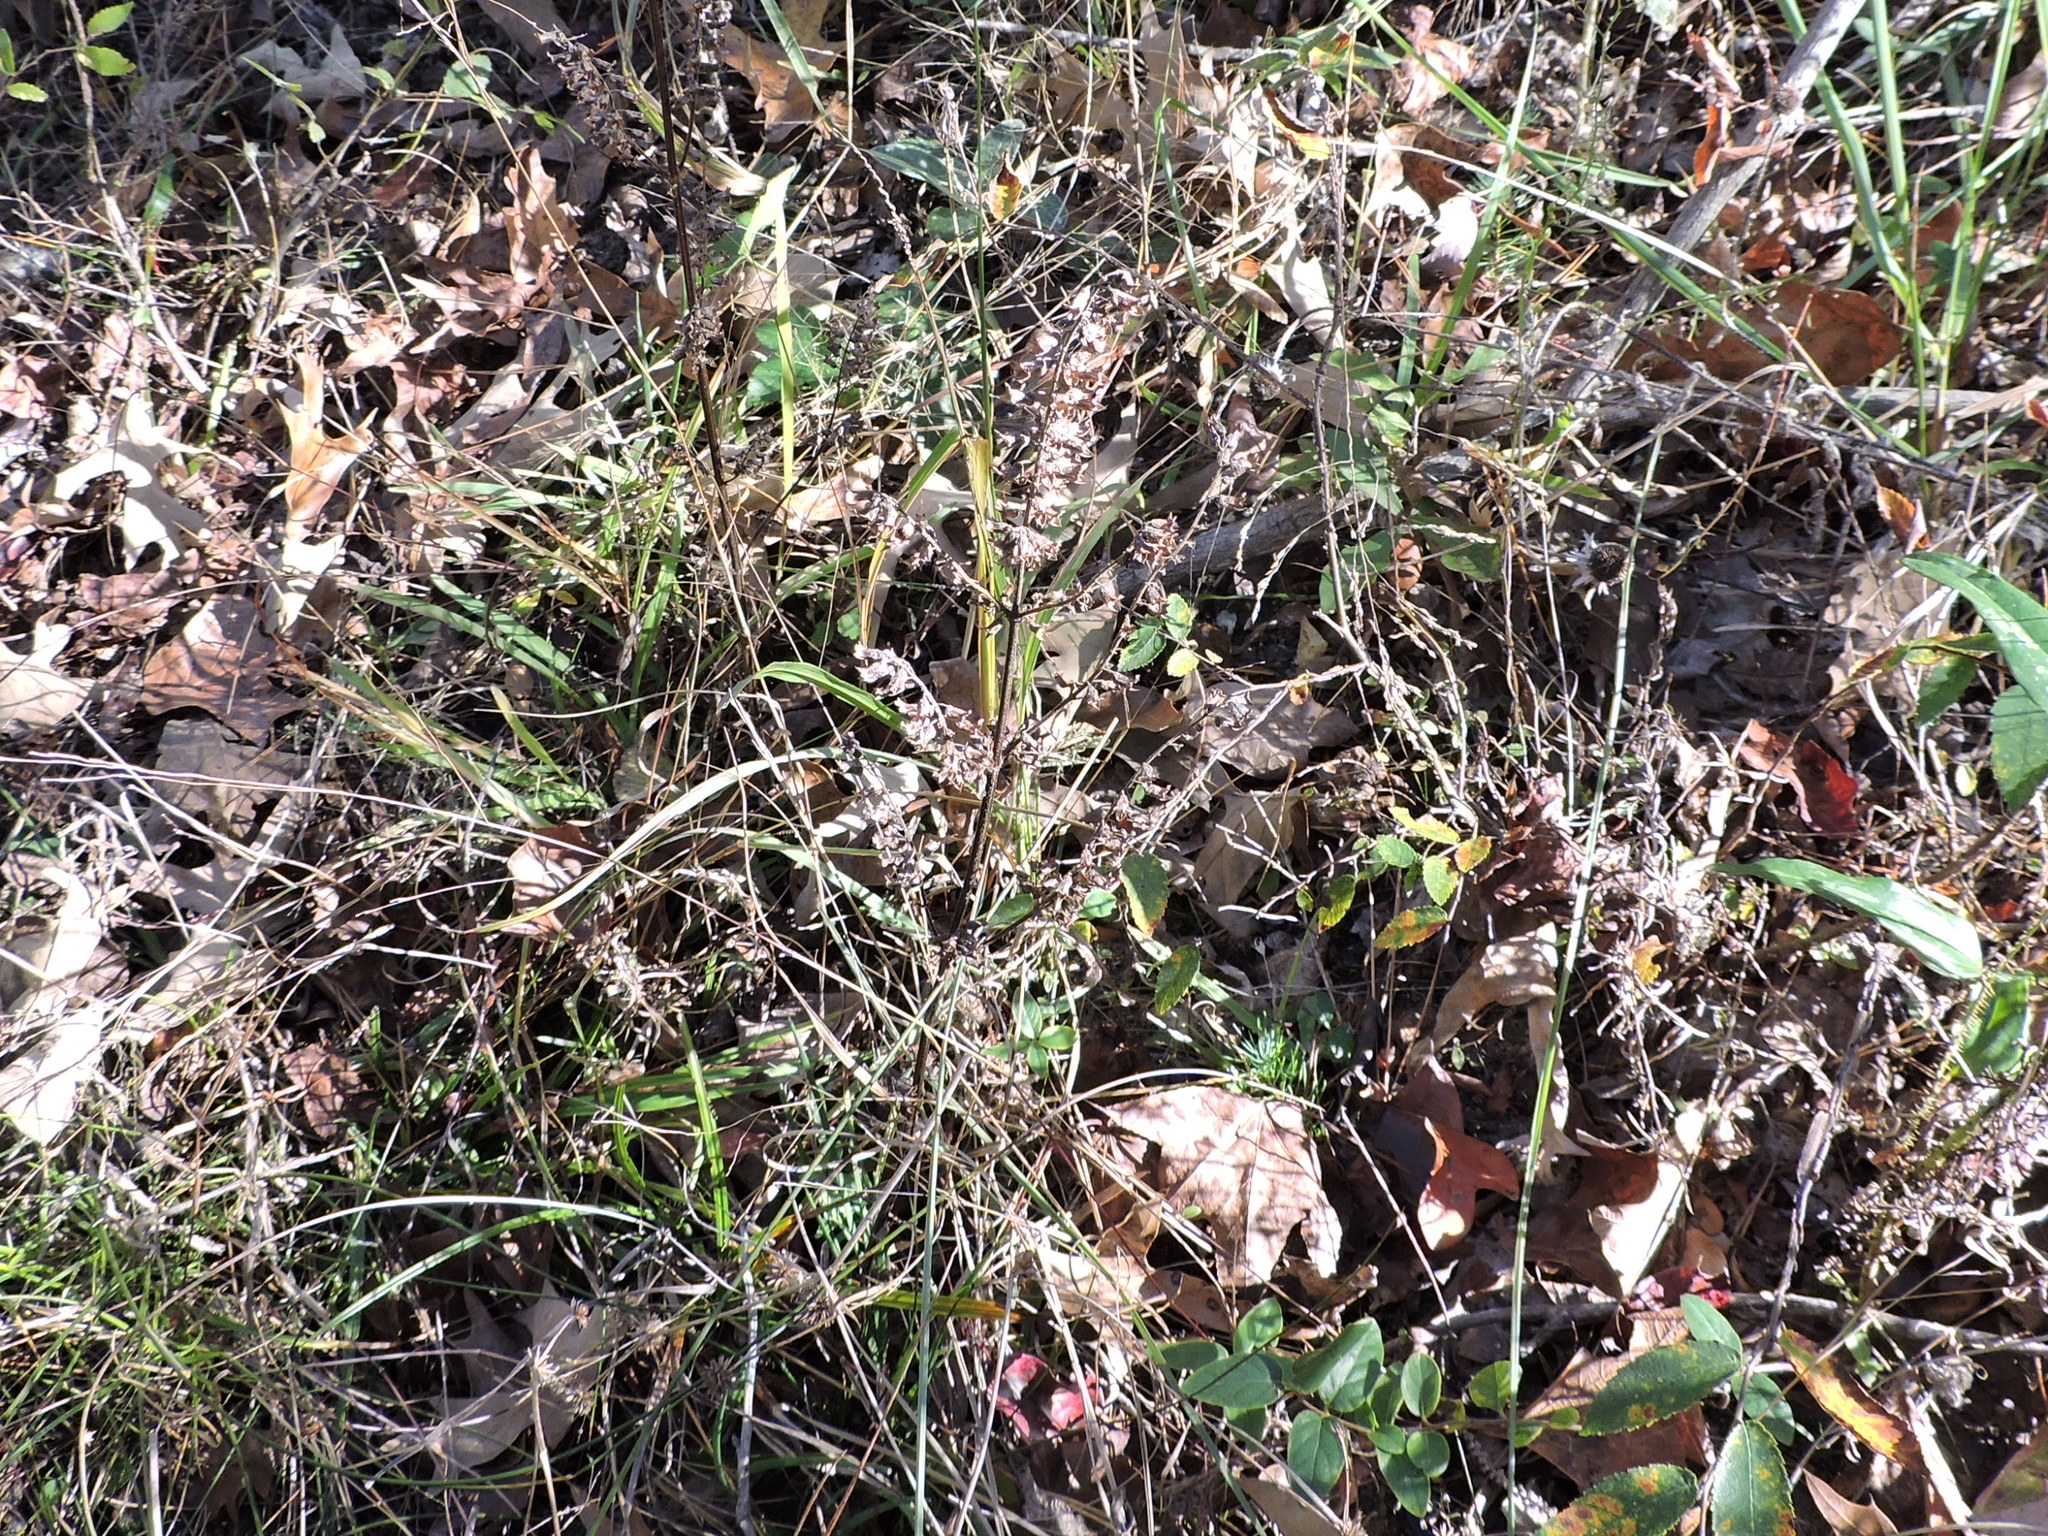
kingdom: Plantae
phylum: Tracheophyta
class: Magnoliopsida
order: Lamiales
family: Lamiaceae
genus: Perilla
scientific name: Perilla frutescens
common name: Perilla
